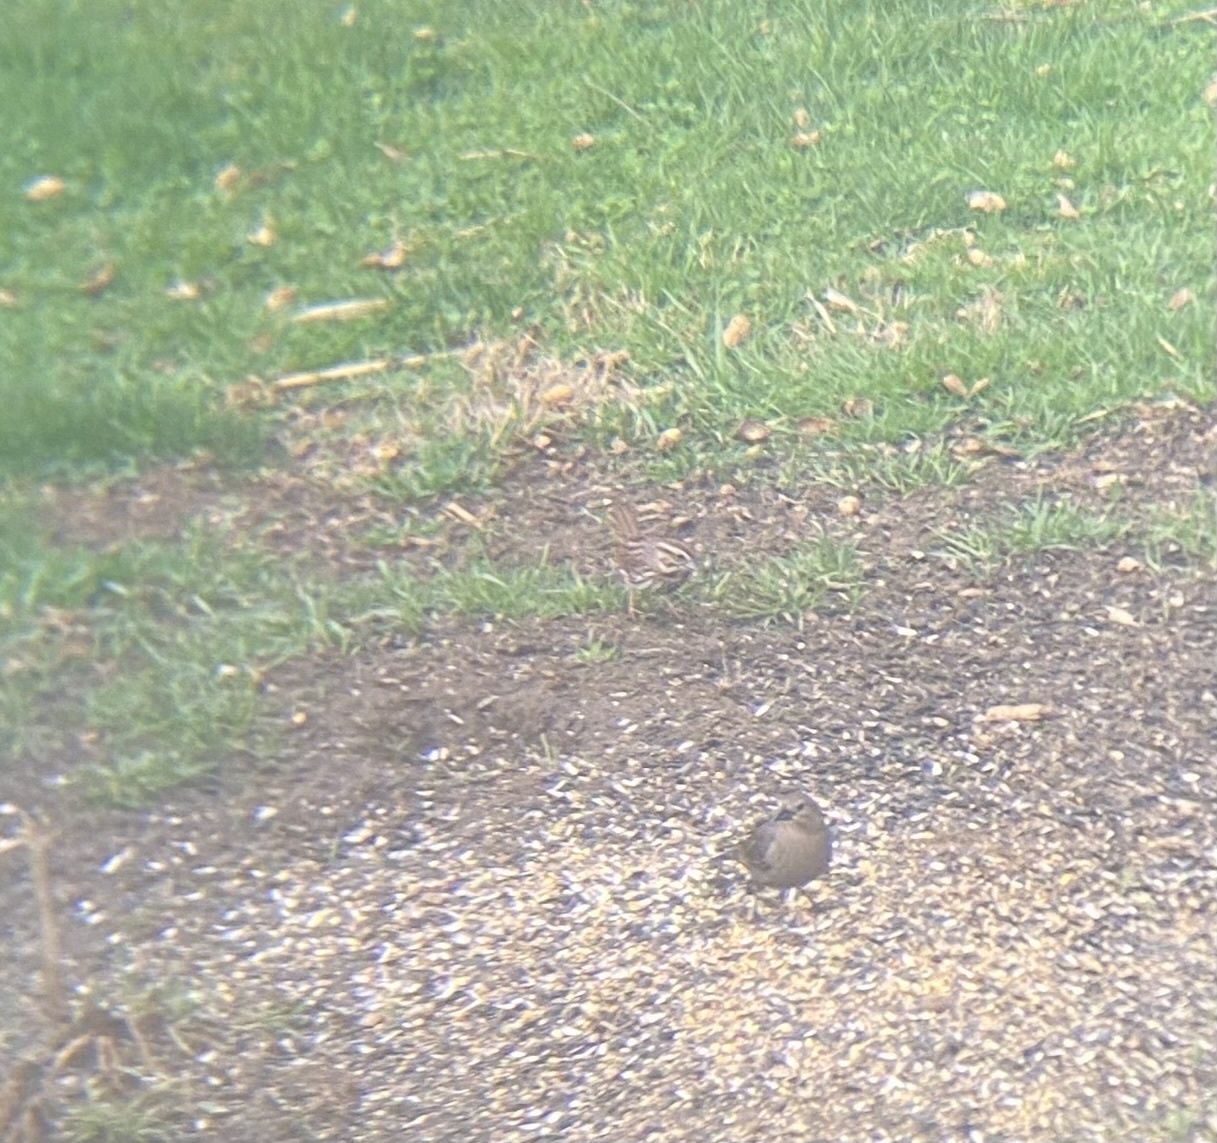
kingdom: Animalia
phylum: Chordata
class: Aves
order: Passeriformes
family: Passerellidae
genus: Melospiza
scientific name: Melospiza melodia
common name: Song sparrow
